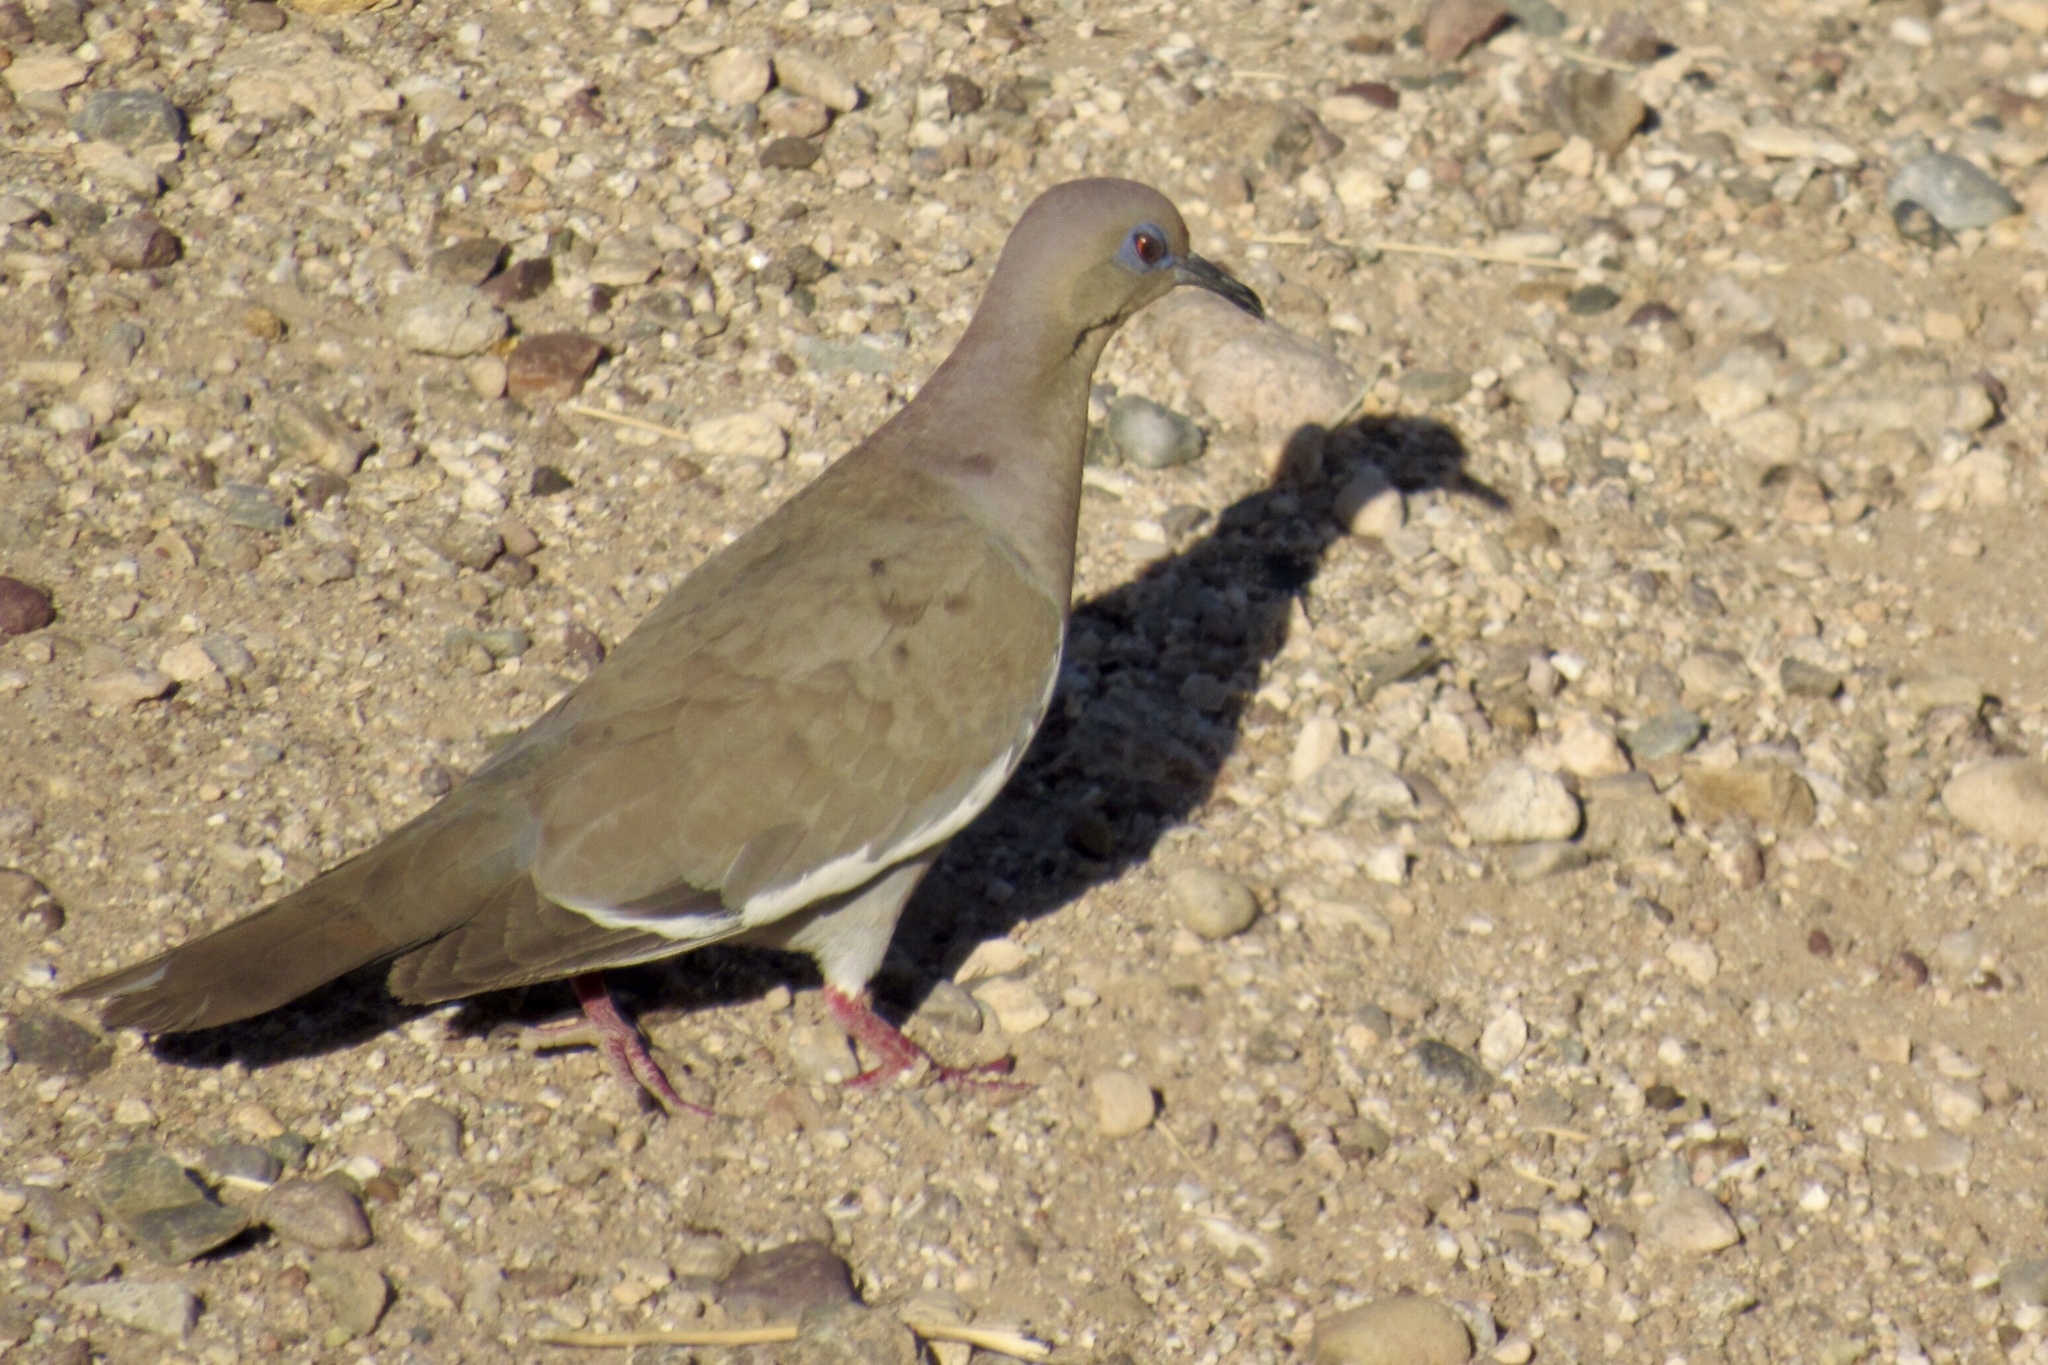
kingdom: Animalia
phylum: Chordata
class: Aves
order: Columbiformes
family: Columbidae
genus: Zenaida
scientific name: Zenaida asiatica
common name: White-winged dove
